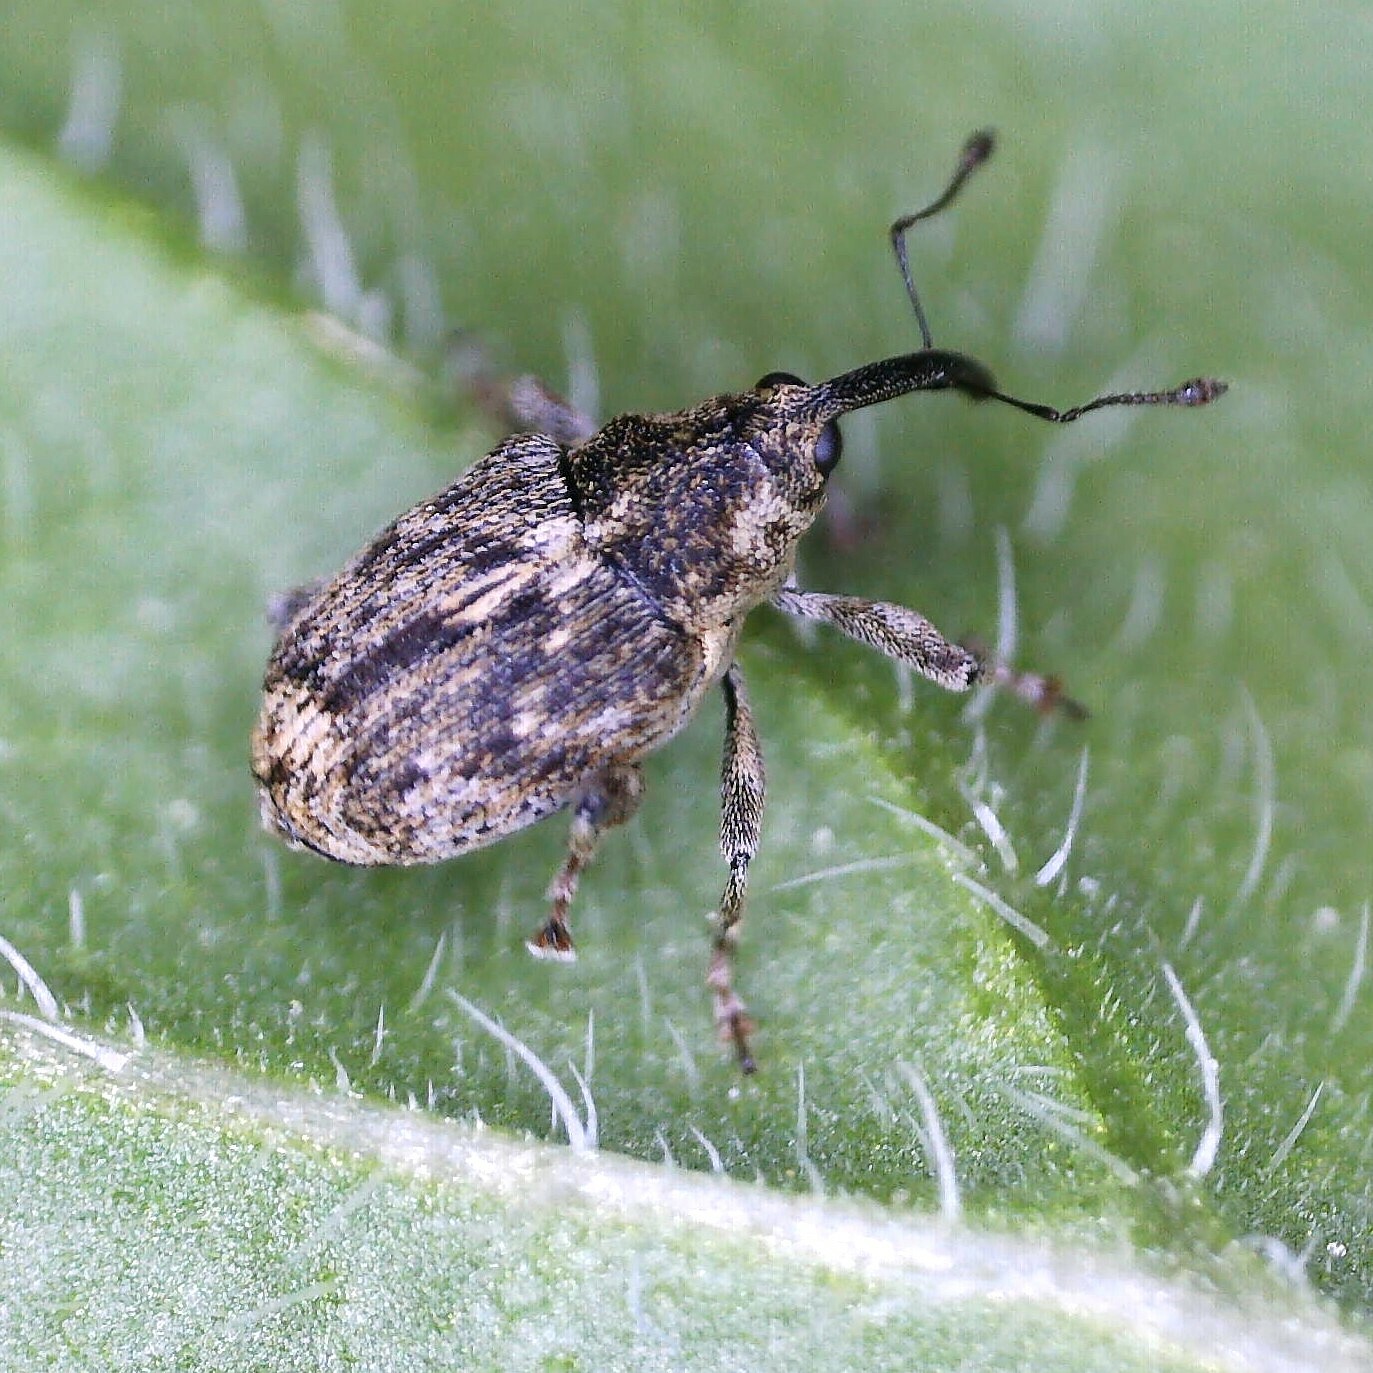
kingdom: Animalia
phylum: Arthropoda
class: Insecta
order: Coleoptera
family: Curculionidae
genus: Datonychus
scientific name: Datonychus melanostictus
